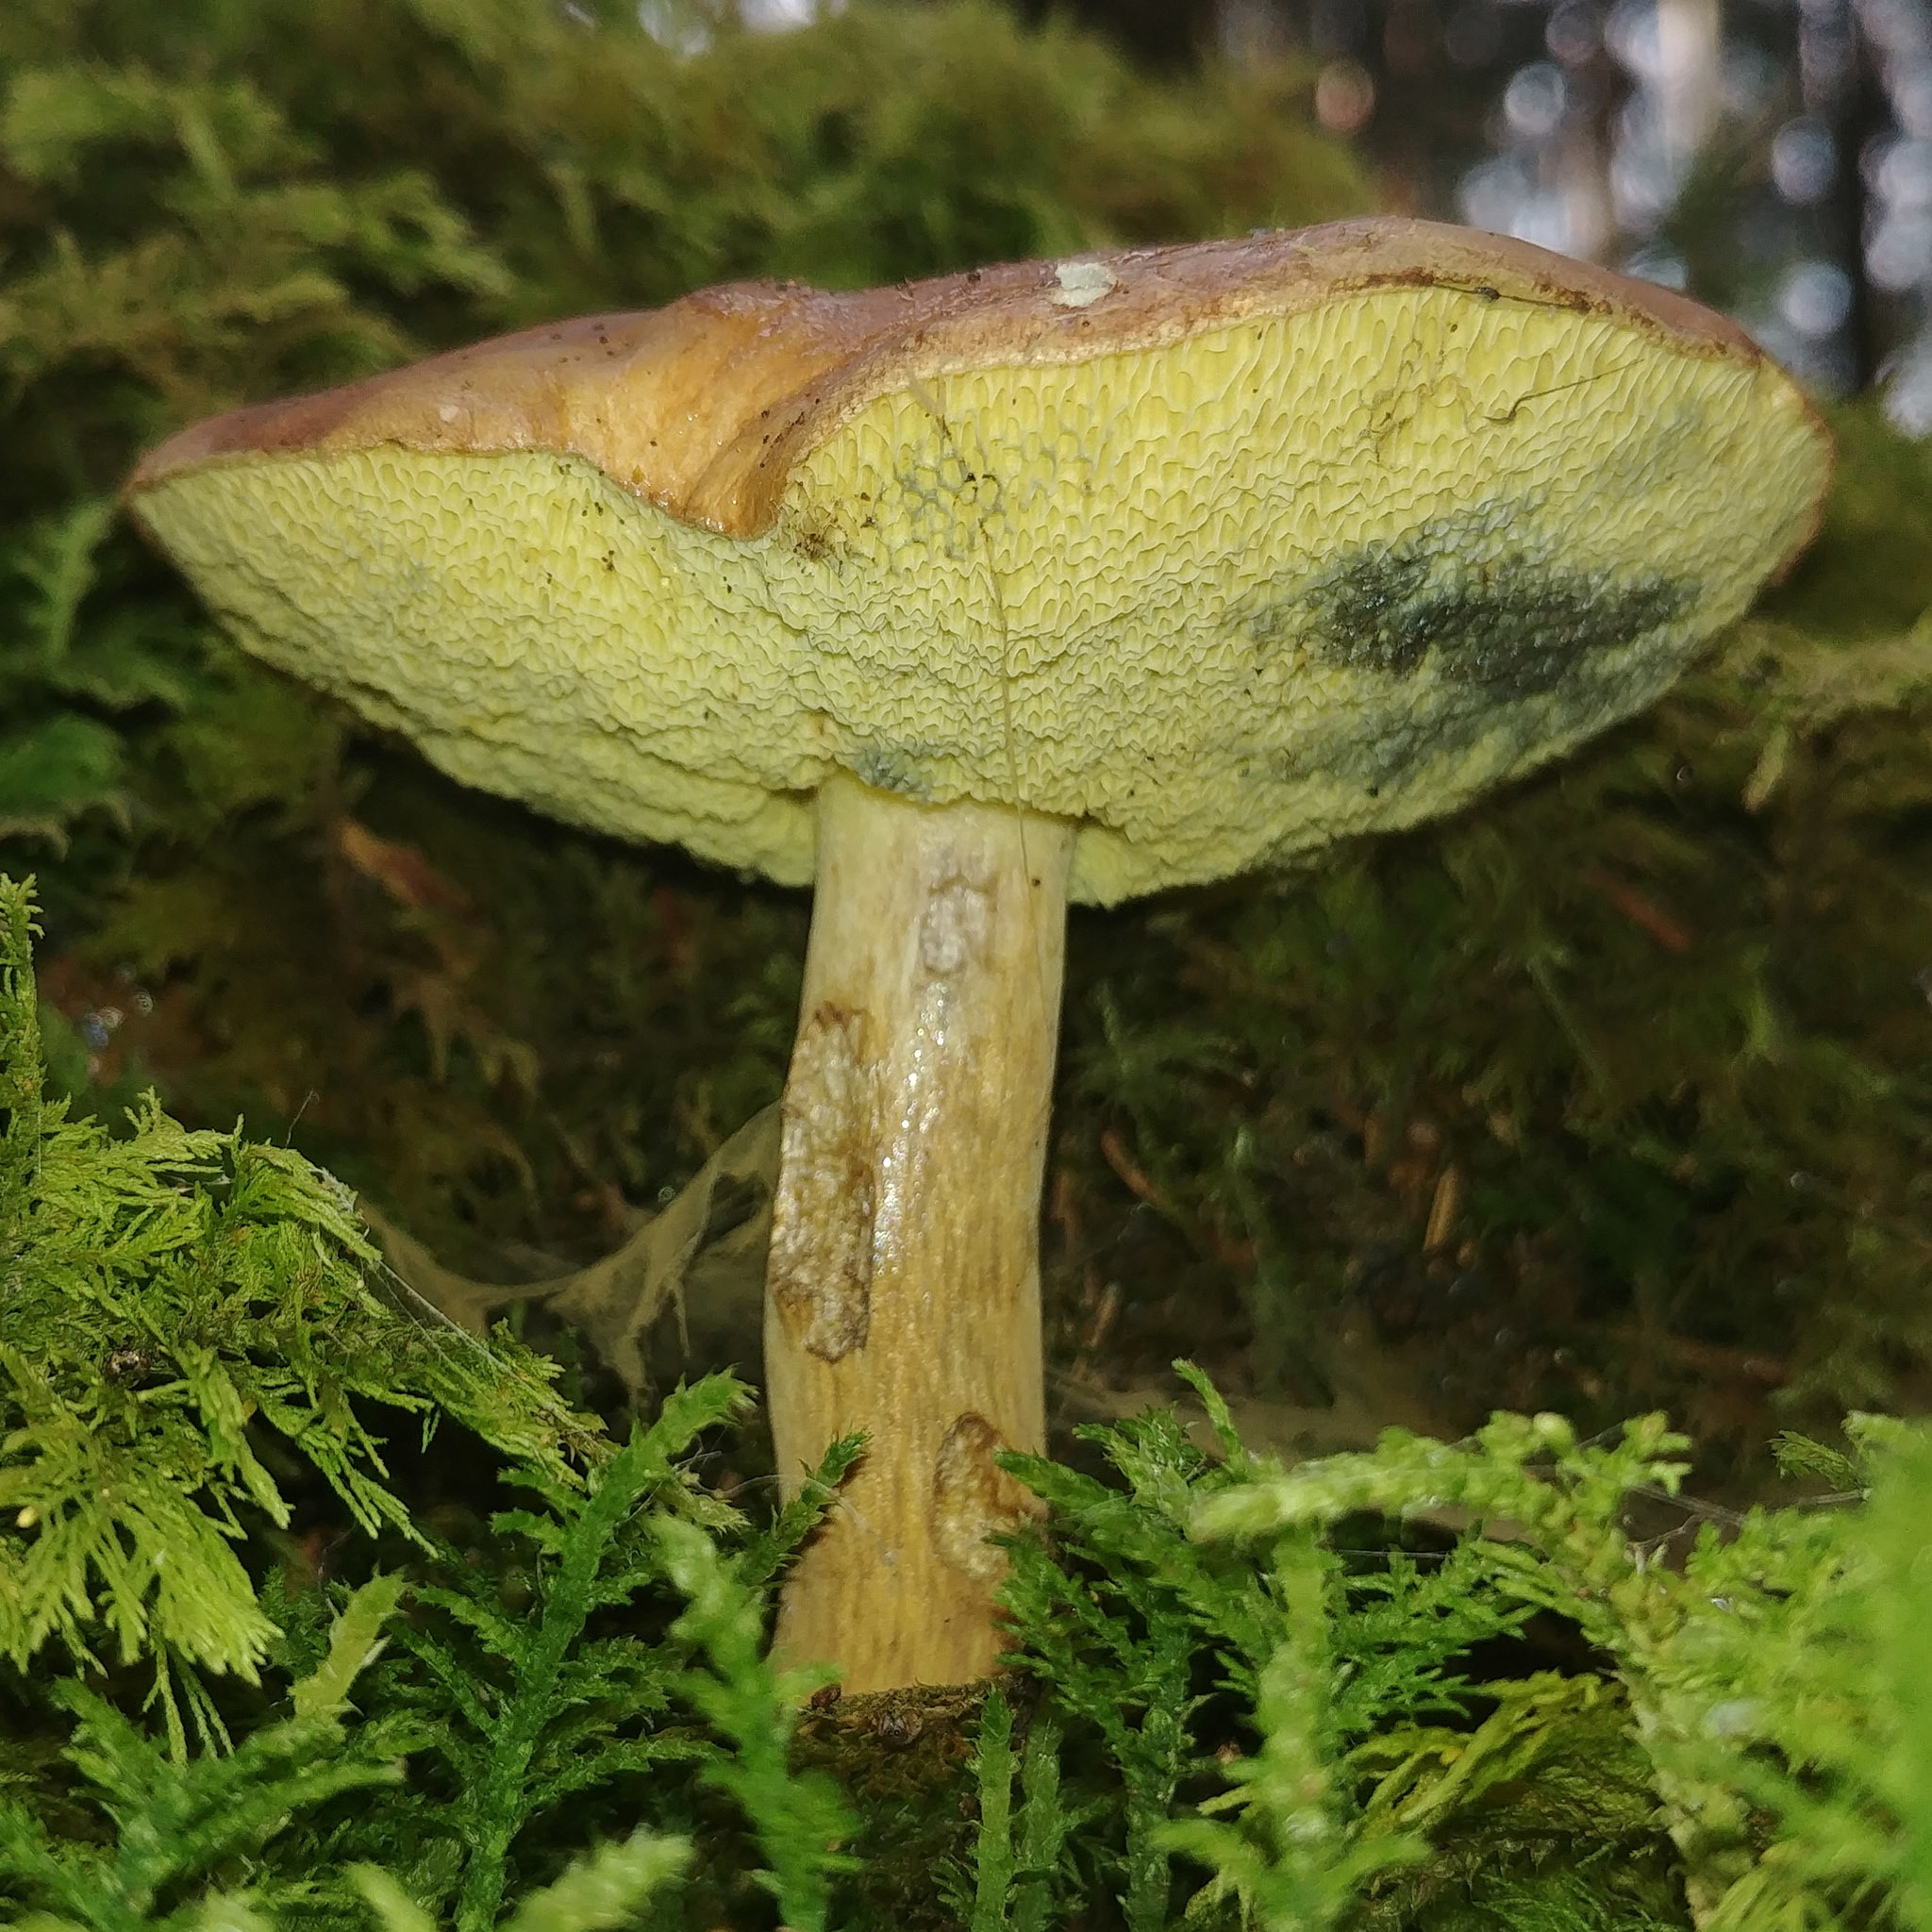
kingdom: Fungi
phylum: Basidiomycota
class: Agaricomycetes
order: Boletales
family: Boletaceae
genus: Imleria
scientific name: Imleria badia
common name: Bay bolete
